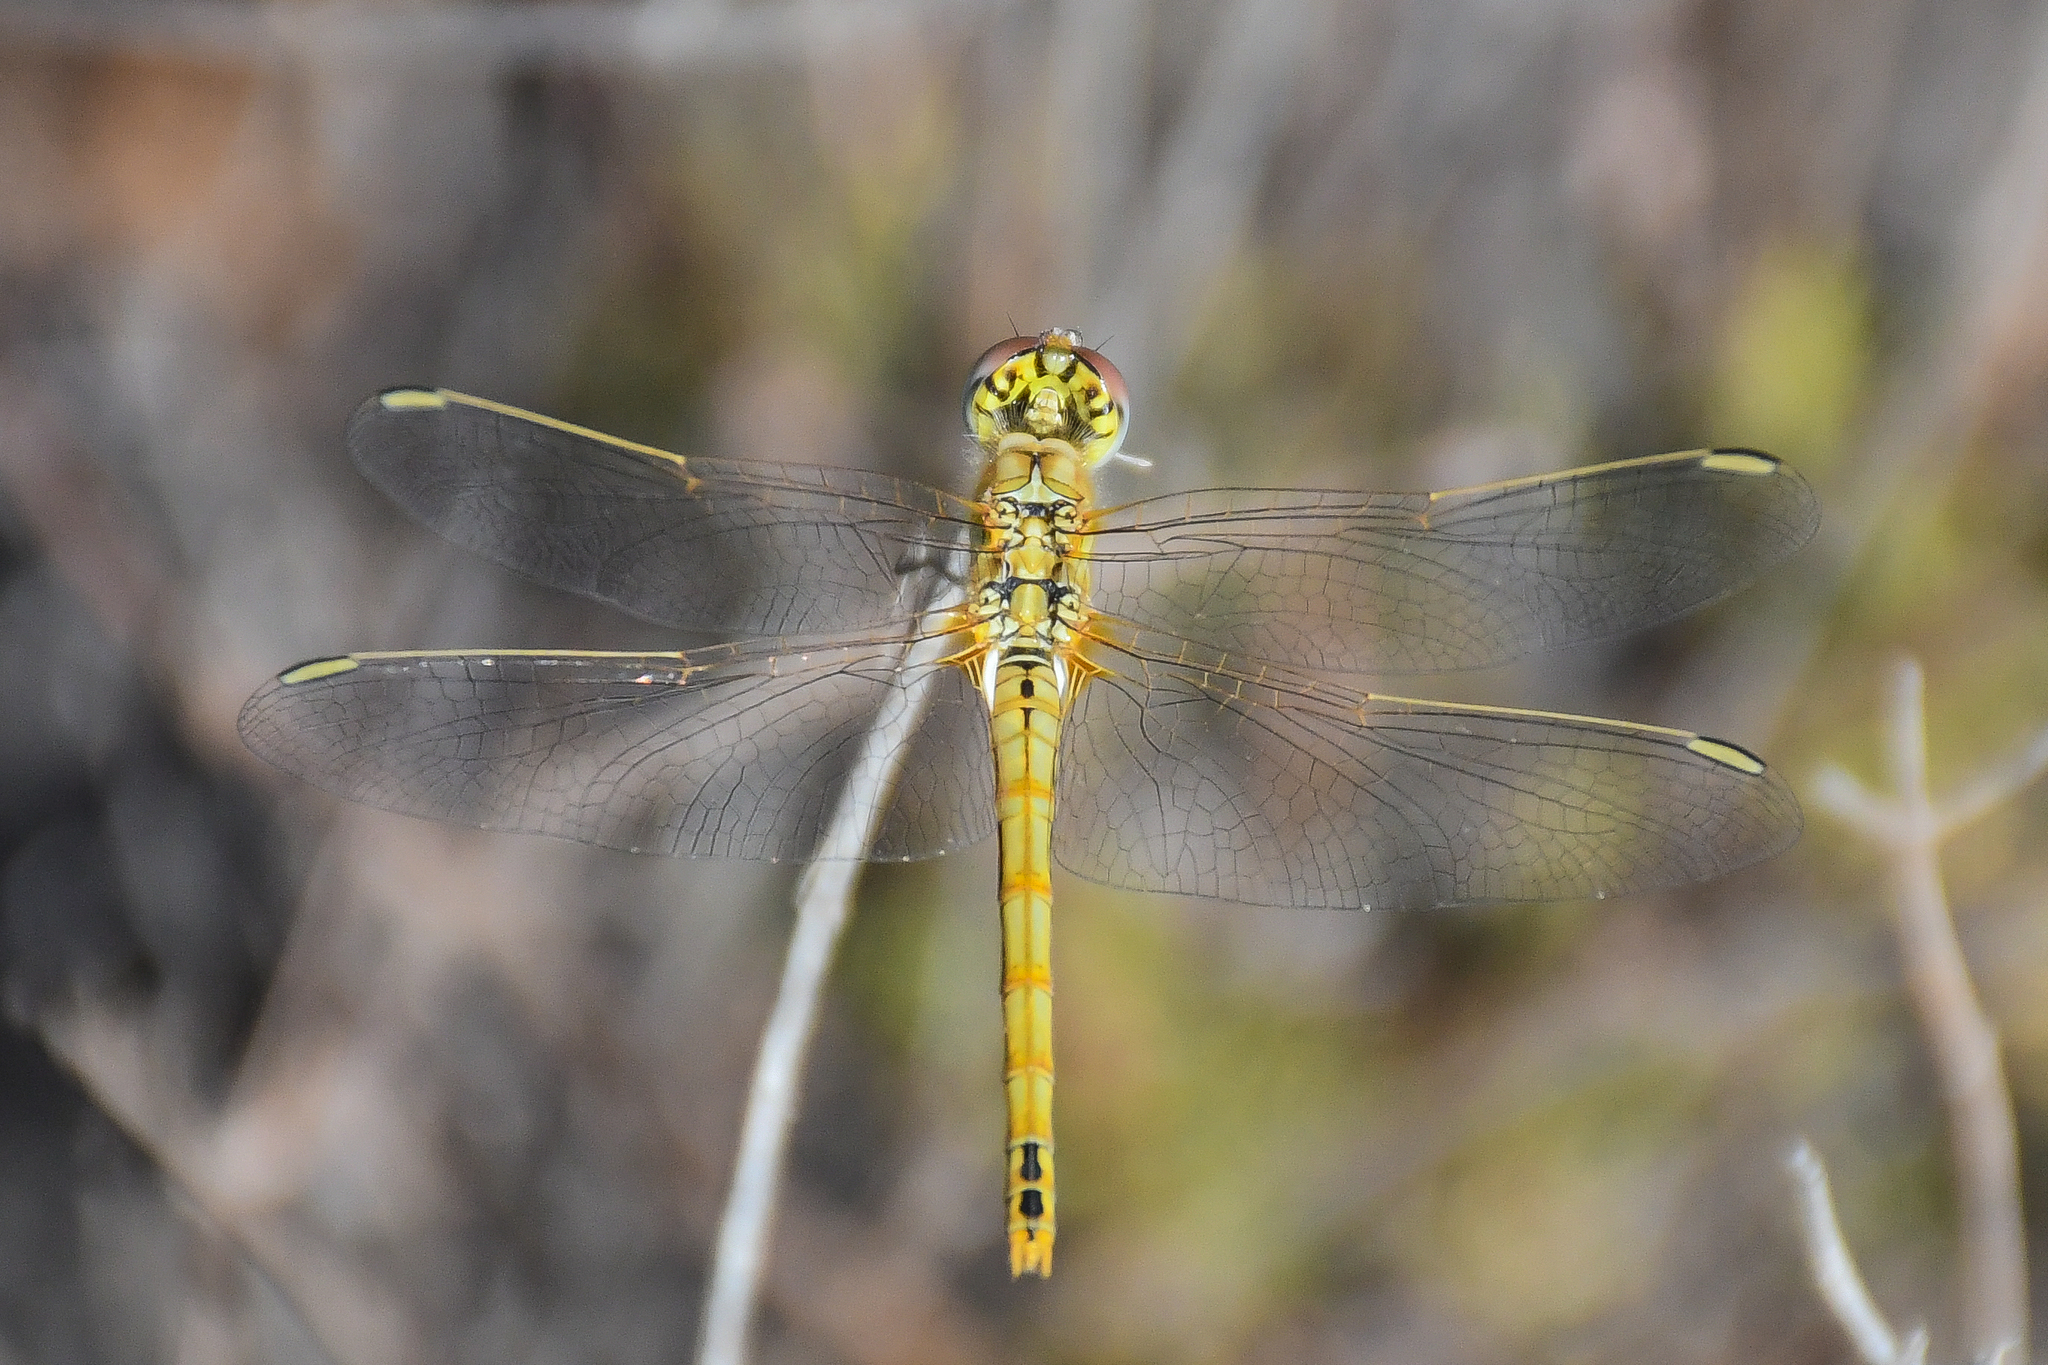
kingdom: Animalia
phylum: Arthropoda
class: Insecta
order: Odonata
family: Libellulidae
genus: Sympetrum
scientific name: Sympetrum fonscolombii
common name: Red-veined darter
